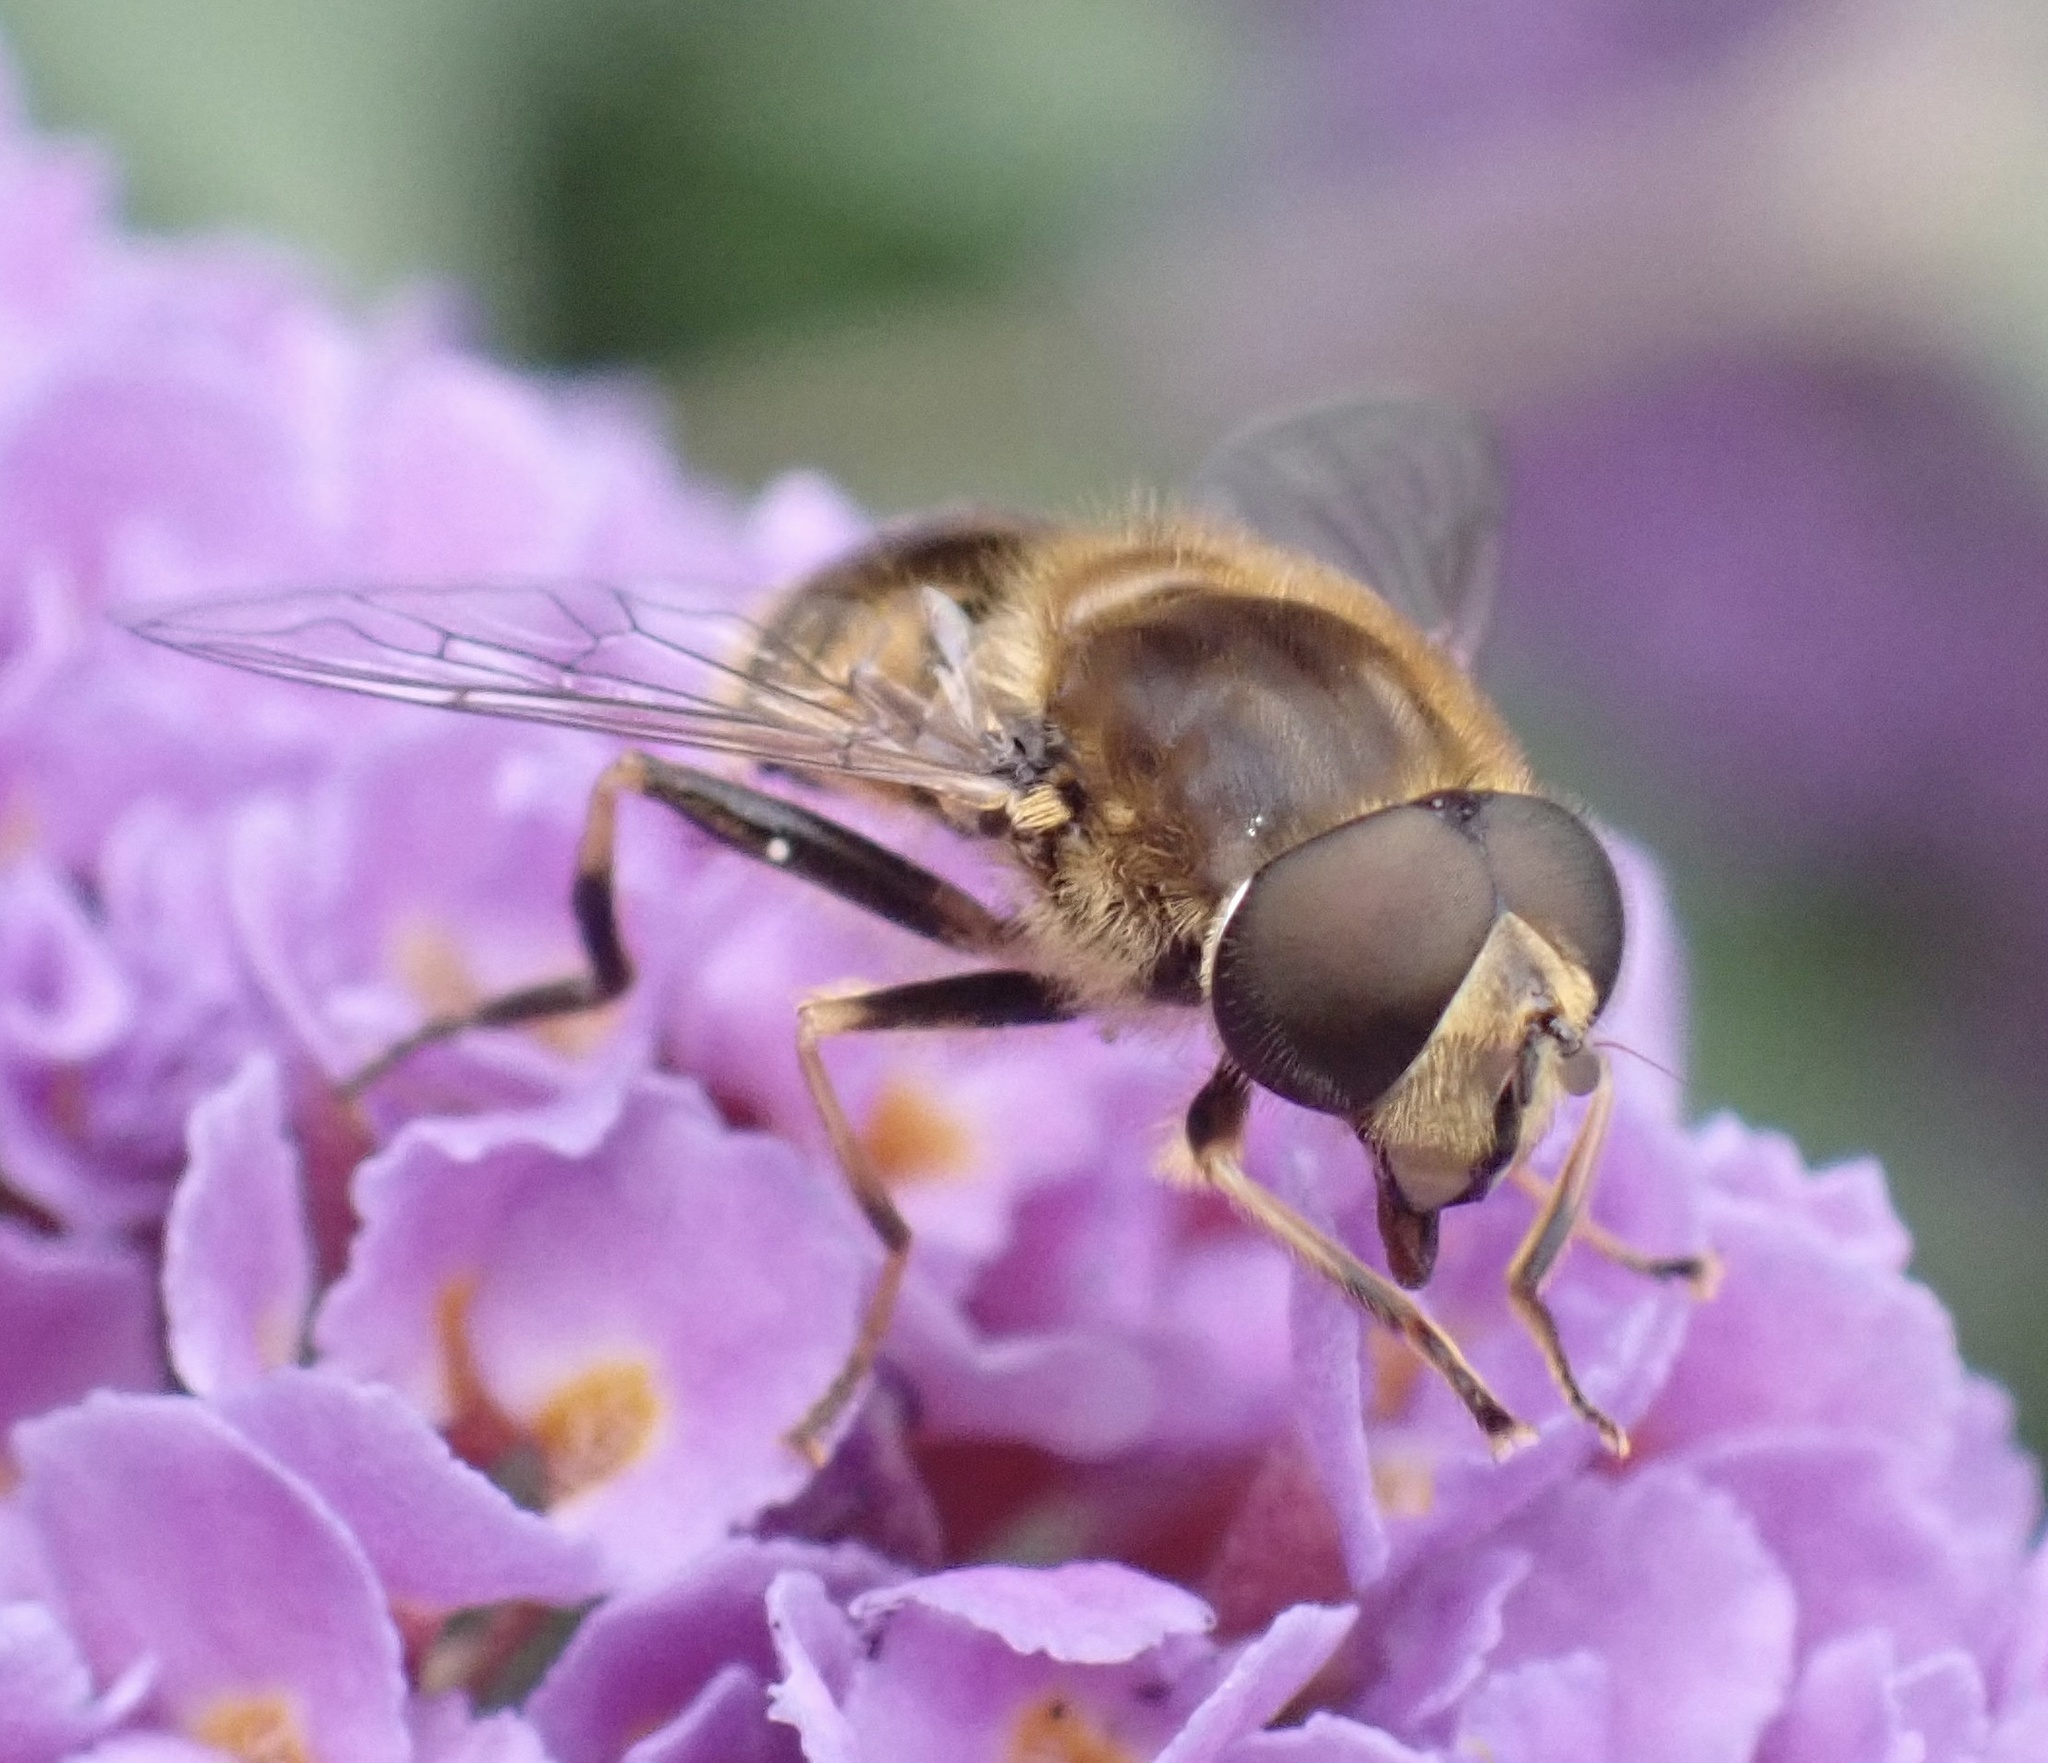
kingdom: Animalia
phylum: Arthropoda
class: Insecta
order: Diptera
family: Syrphidae
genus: Eristalis
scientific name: Eristalis nemorum
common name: Orange-spined drone fly
